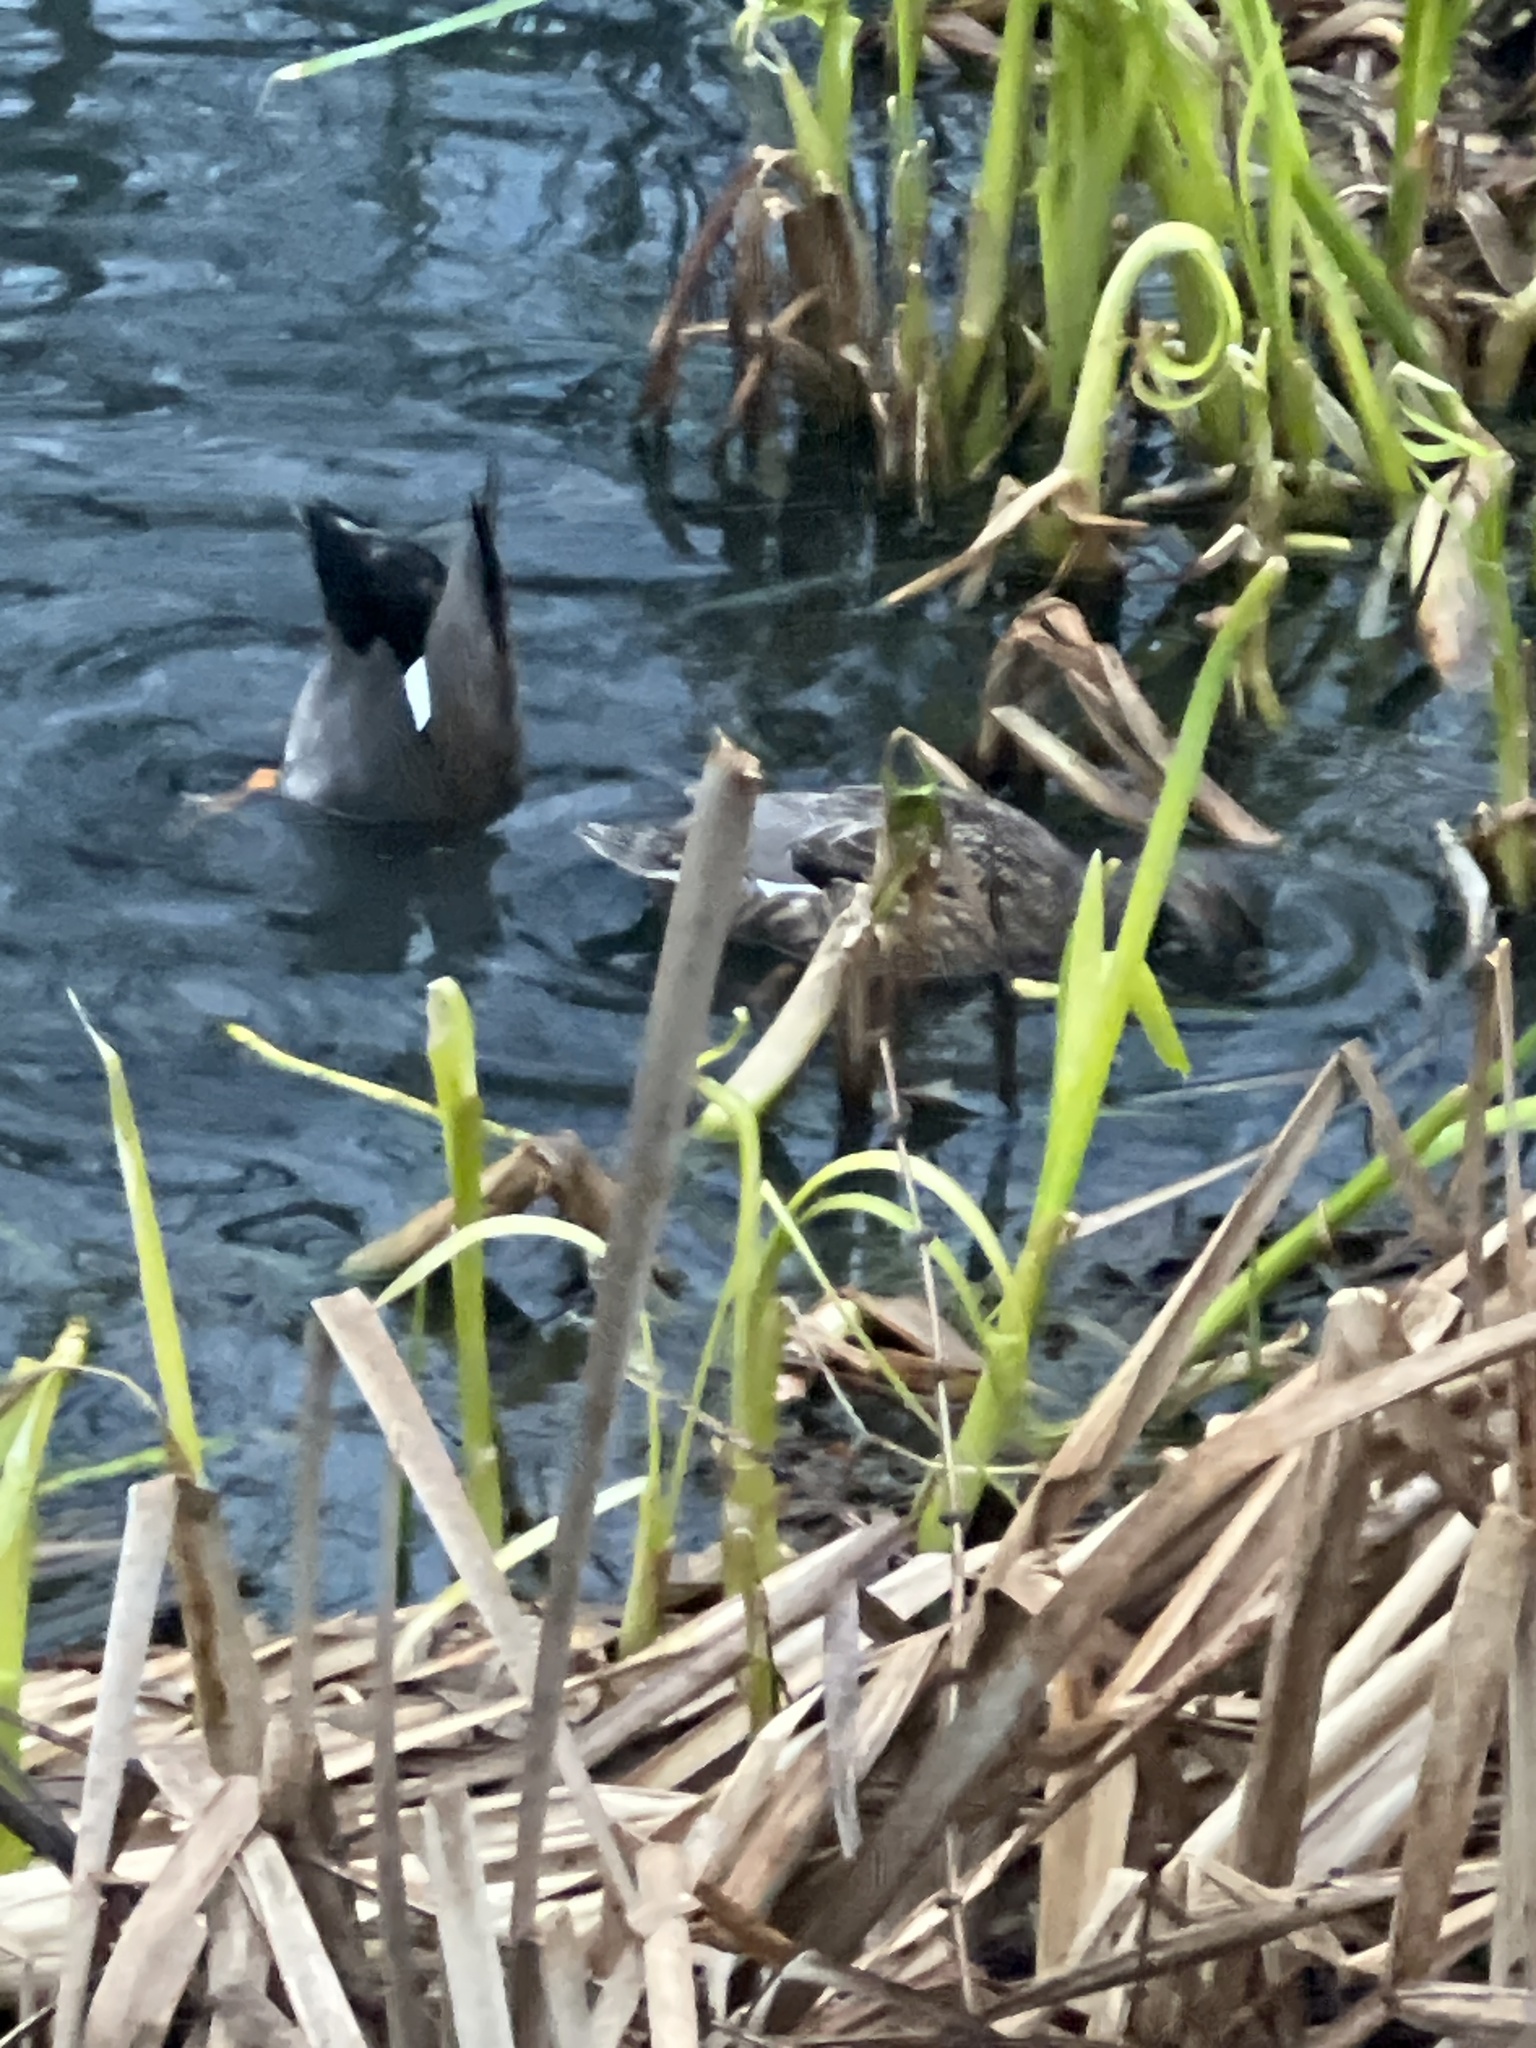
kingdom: Animalia
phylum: Chordata
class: Aves
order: Anseriformes
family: Anatidae
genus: Mareca
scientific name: Mareca strepera
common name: Gadwall
